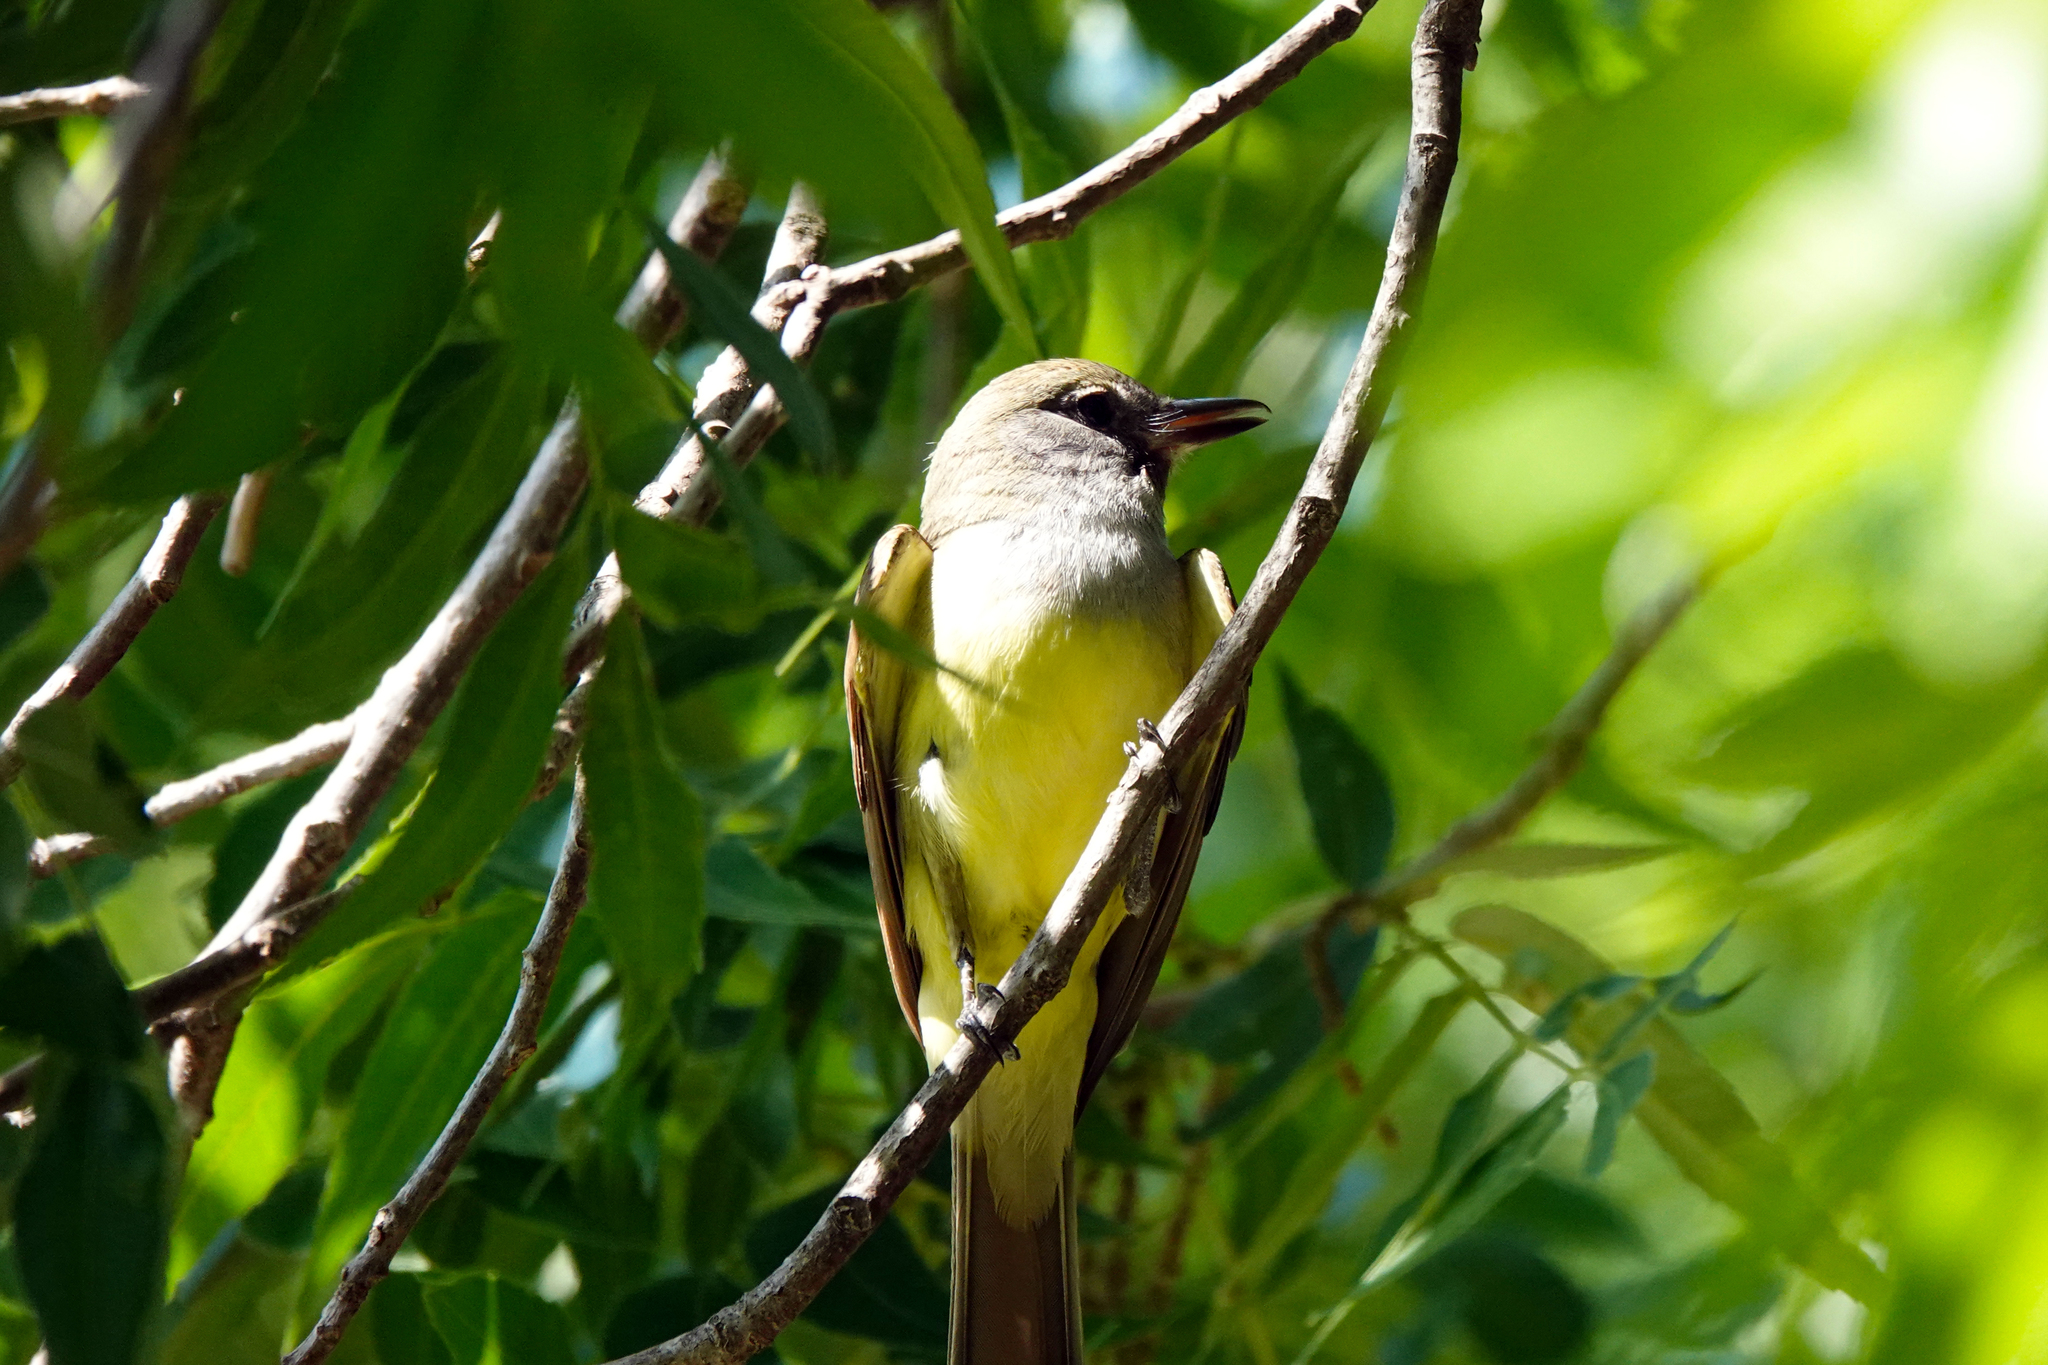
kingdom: Animalia
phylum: Chordata
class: Aves
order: Passeriformes
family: Tyrannidae
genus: Myiarchus
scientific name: Myiarchus crinitus
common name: Great crested flycatcher
